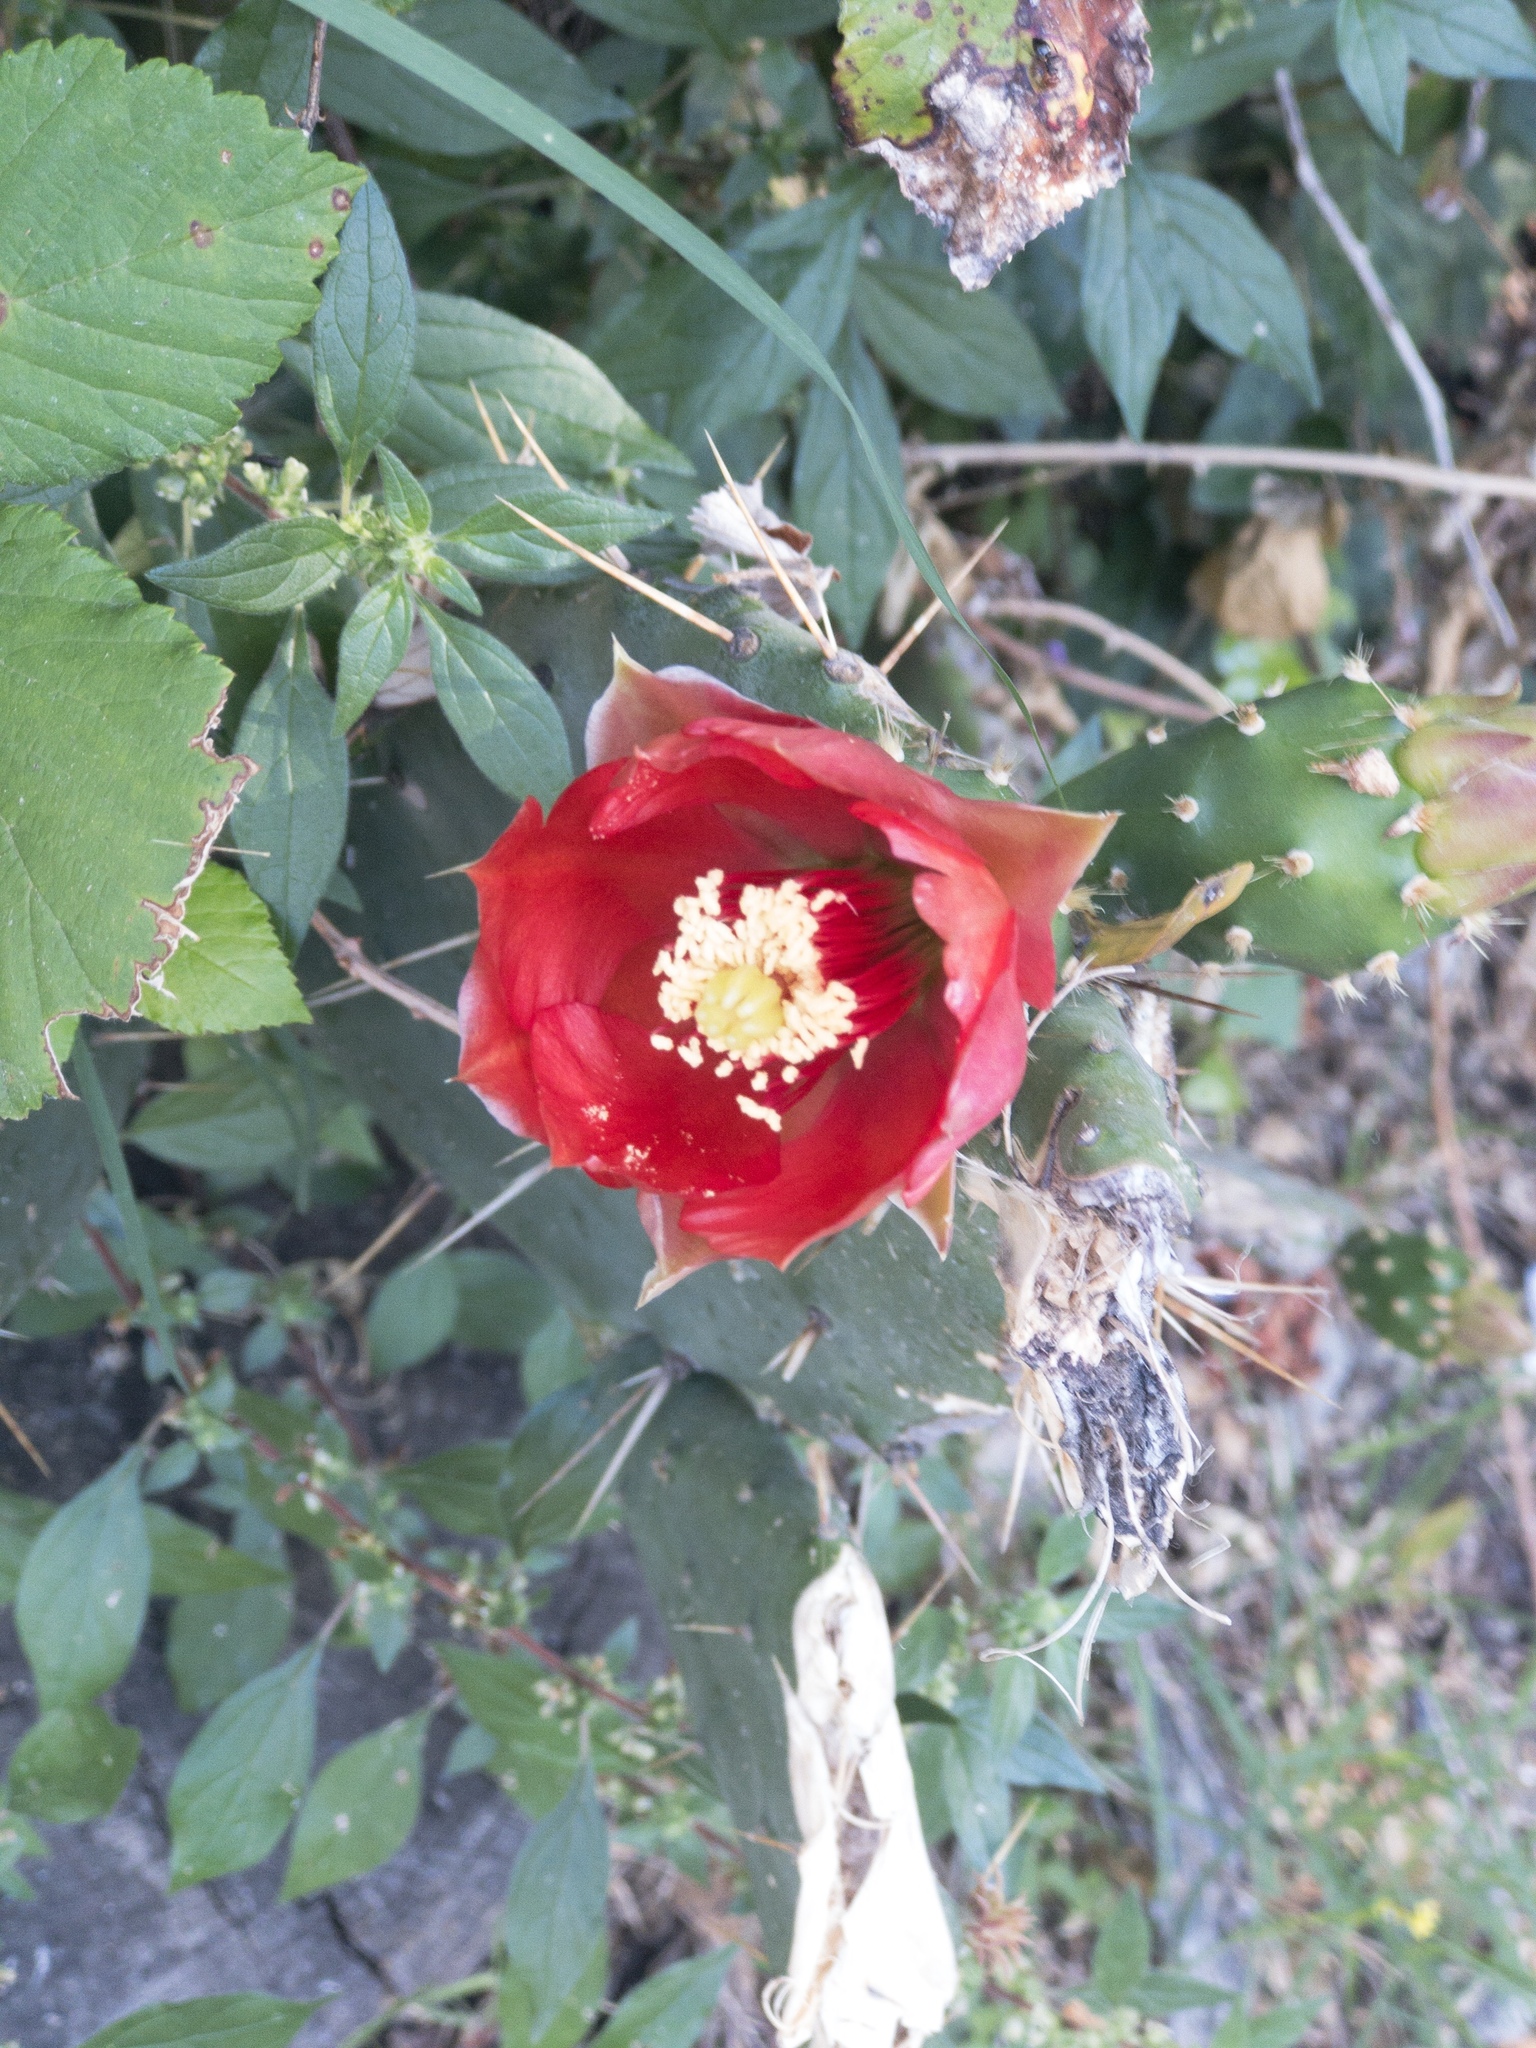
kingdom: Plantae
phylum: Tracheophyta
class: Magnoliopsida
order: Caryophyllales
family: Cactaceae
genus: Opuntia
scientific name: Opuntia elatior
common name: Tuna
